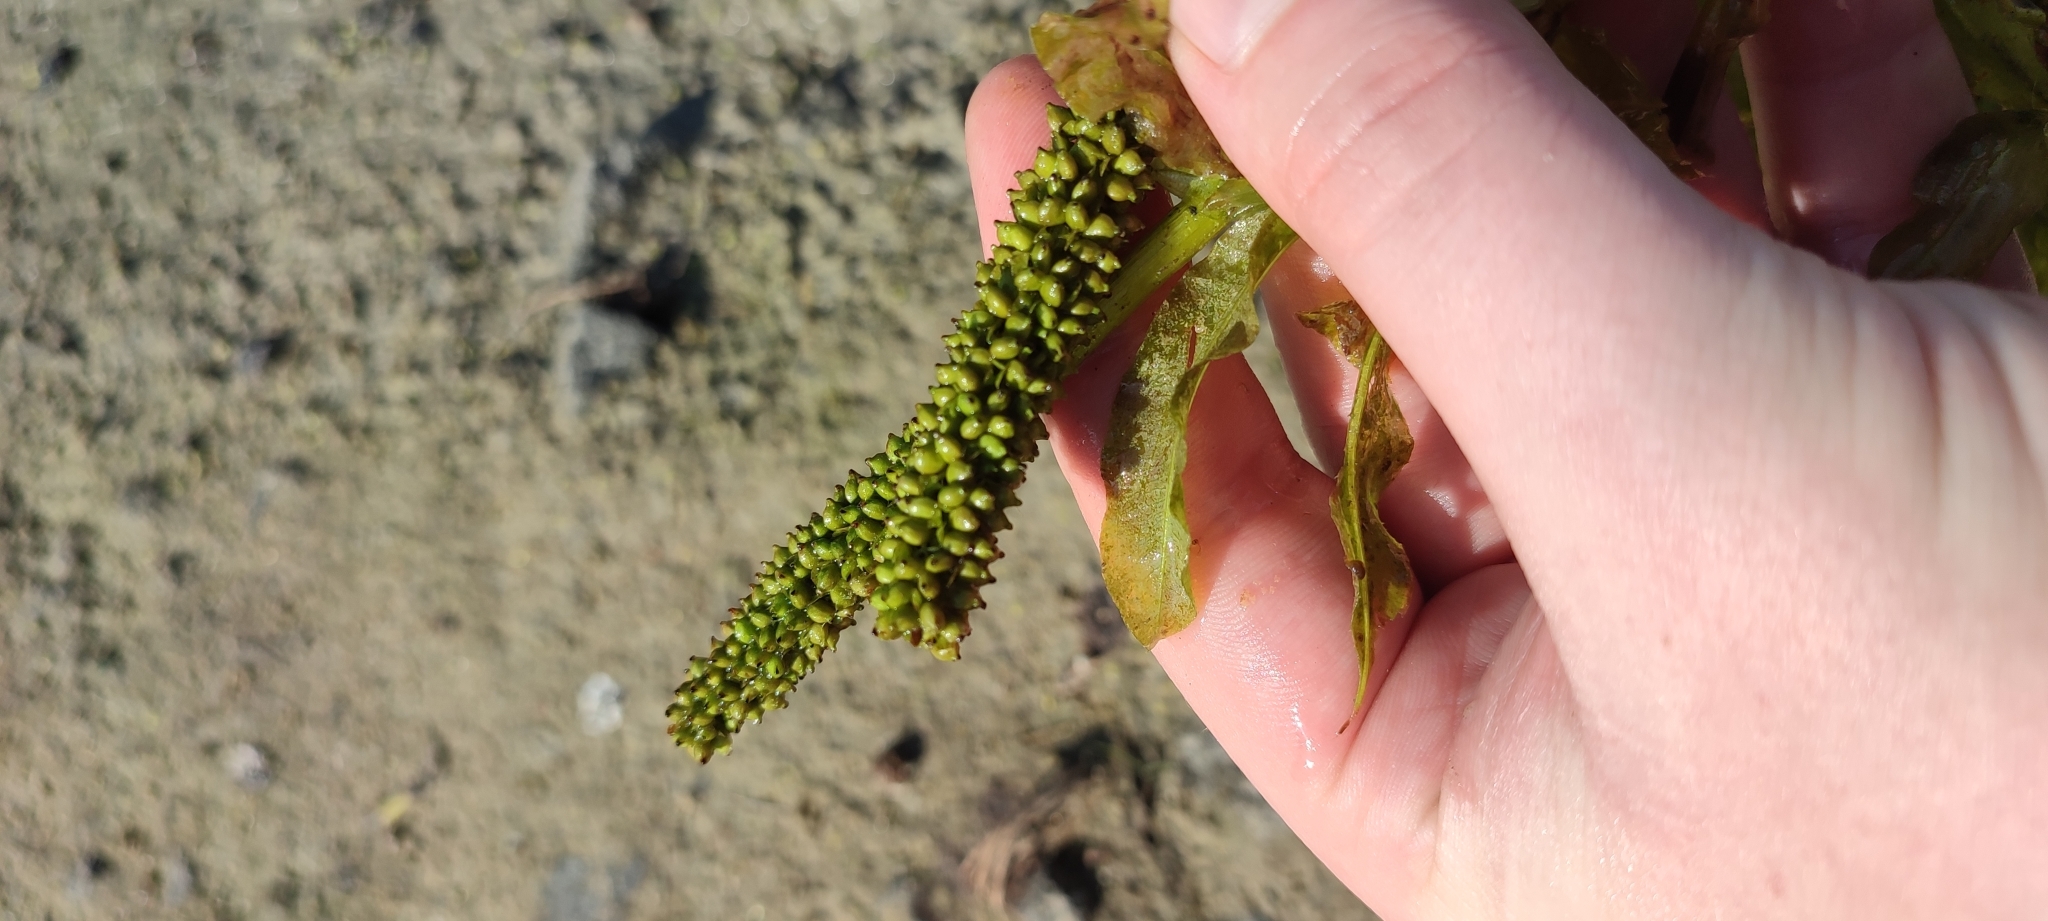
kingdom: Plantae
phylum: Tracheophyta
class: Liliopsida
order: Alismatales
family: Potamogetonaceae
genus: Potamogeton
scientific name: Potamogeton lucens
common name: Shining pondweed
